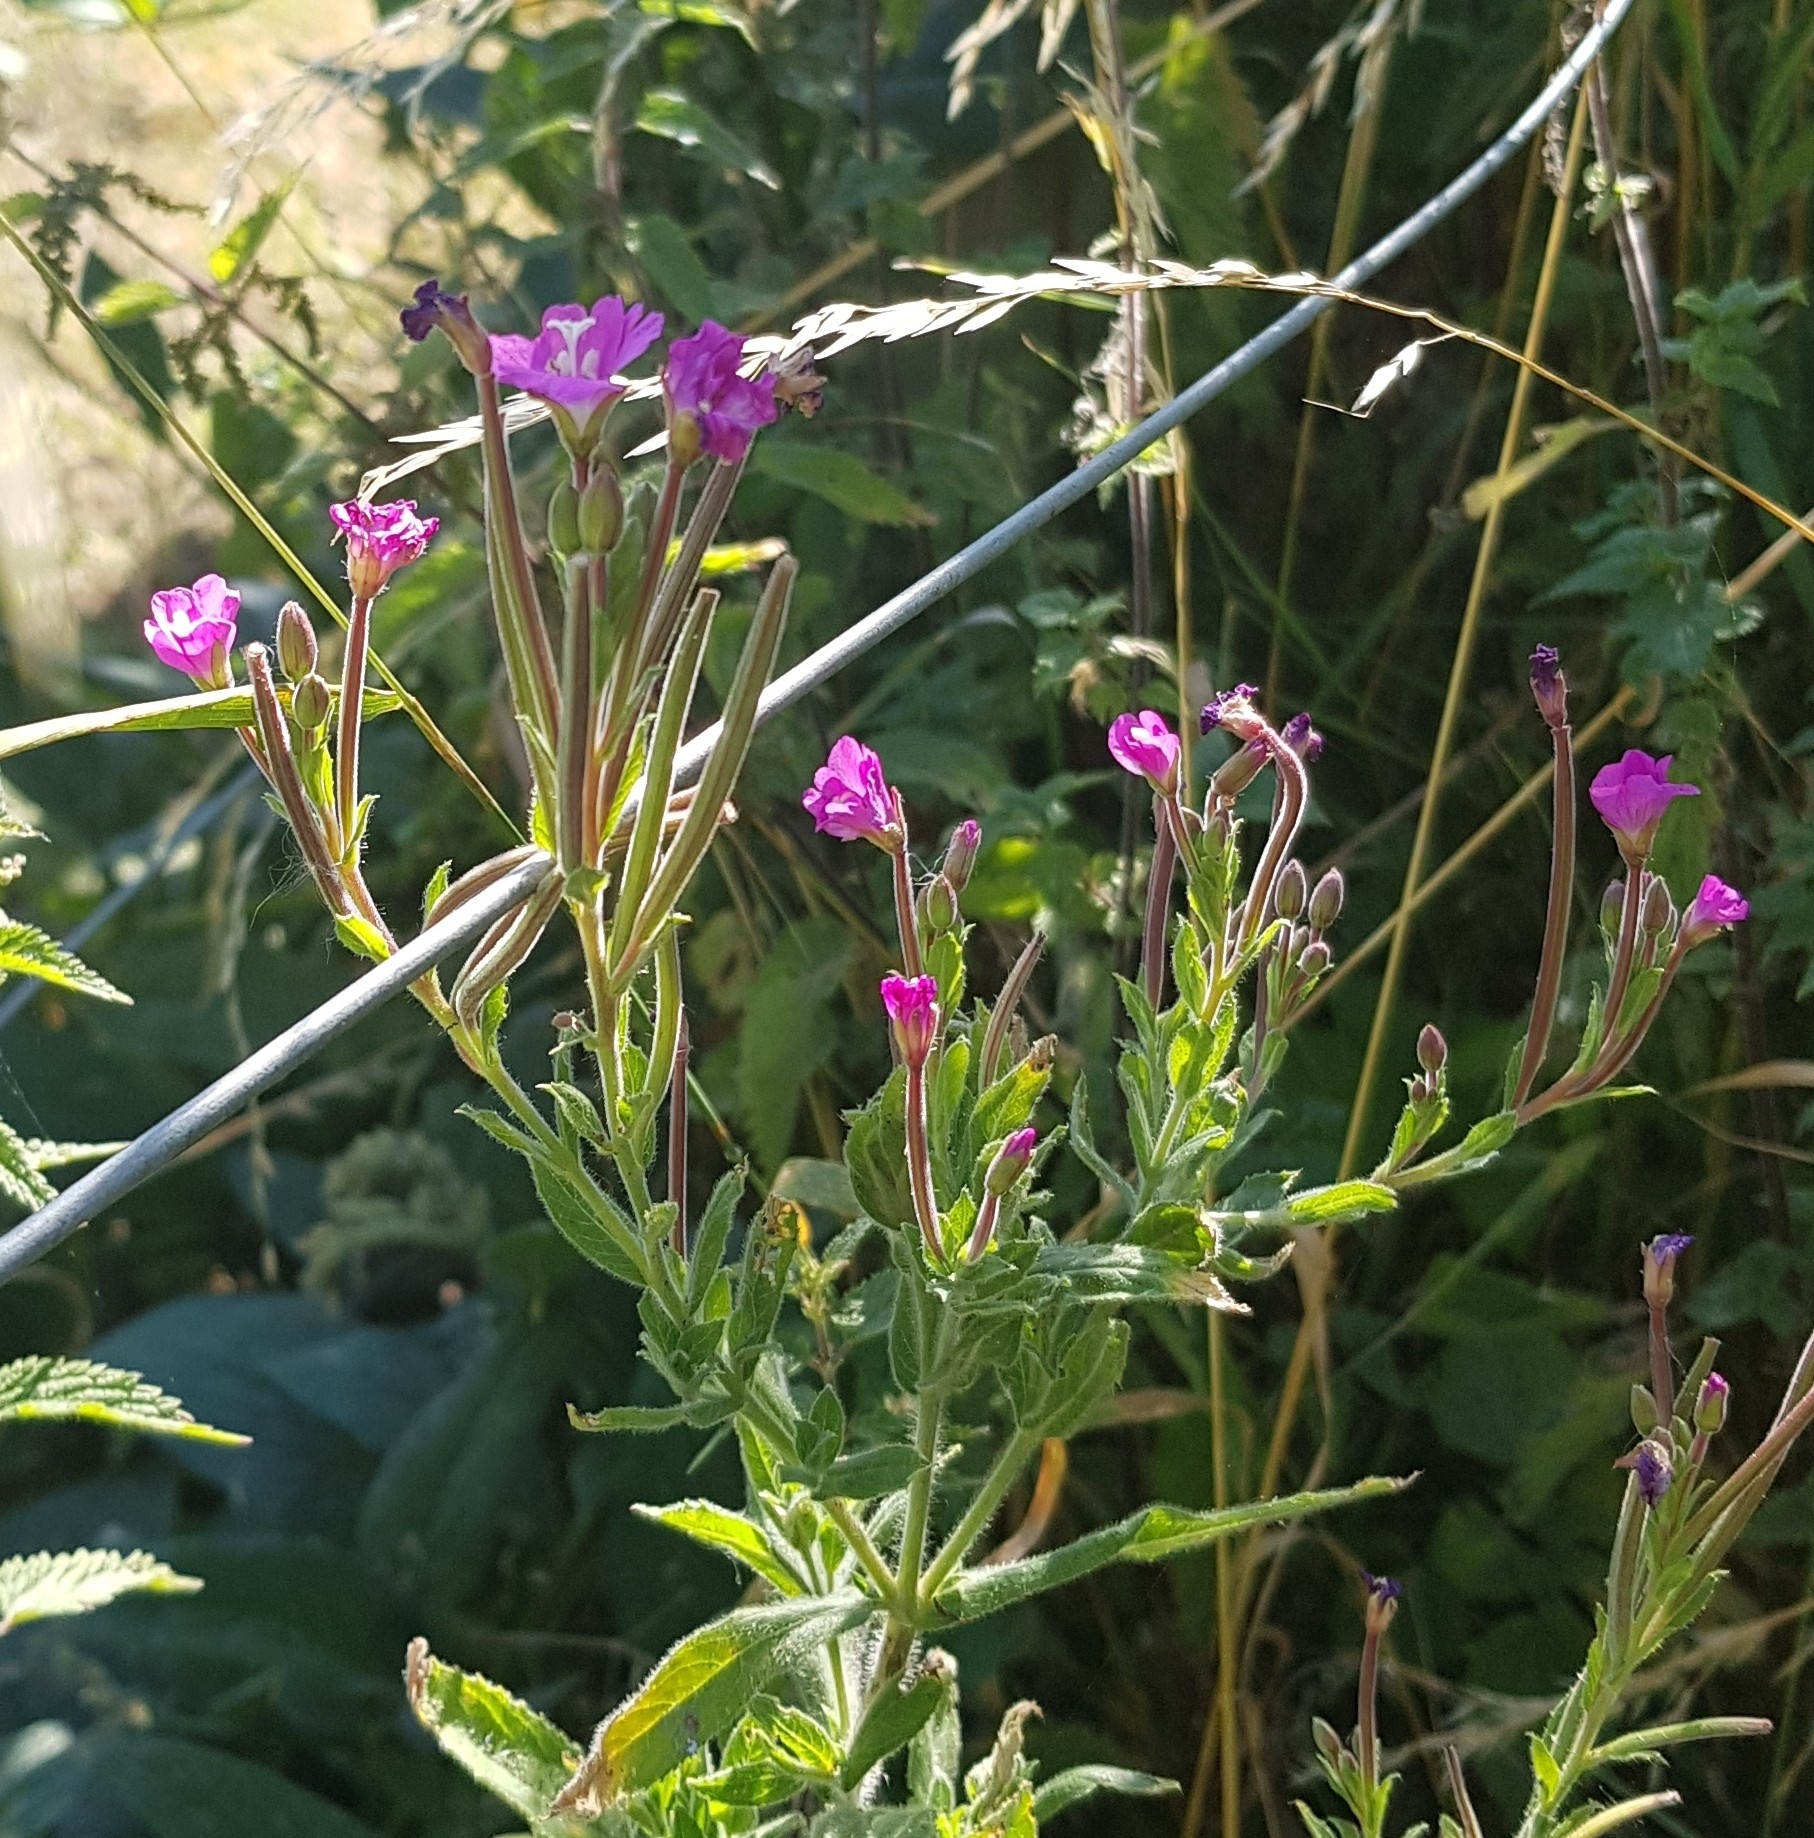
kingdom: Plantae
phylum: Tracheophyta
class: Magnoliopsida
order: Myrtales
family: Onagraceae
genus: Epilobium
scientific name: Epilobium hirsutum
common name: Great willowherb
